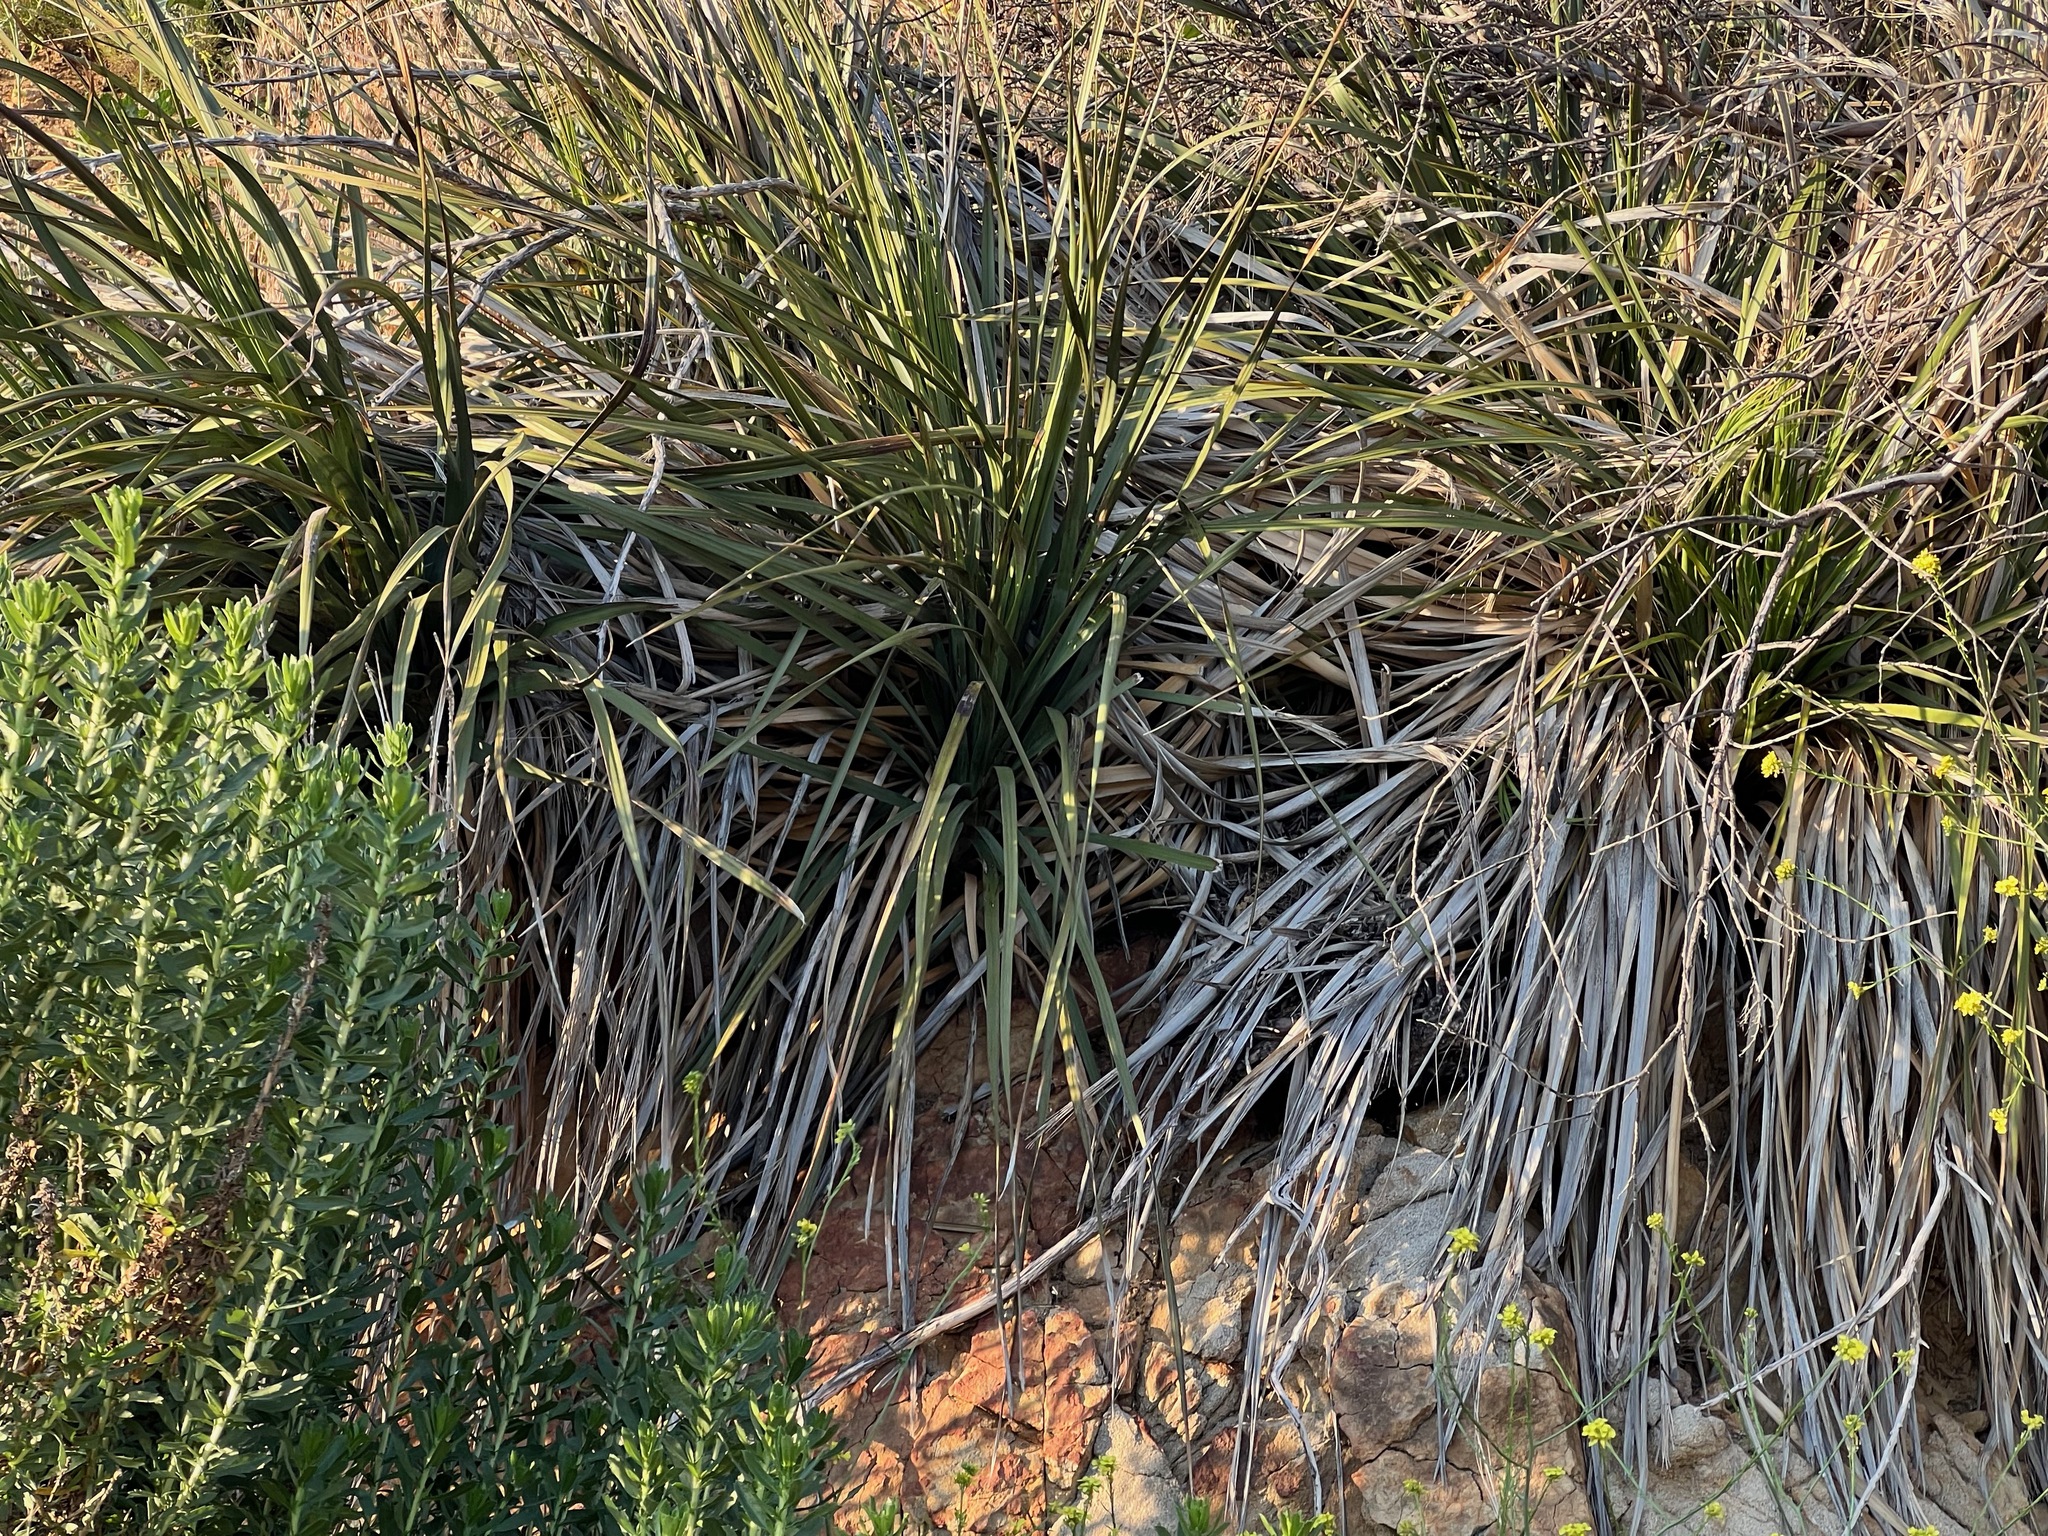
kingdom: Plantae
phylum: Tracheophyta
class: Liliopsida
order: Asparagales
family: Asparagaceae
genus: Nolina
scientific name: Nolina cismontana
